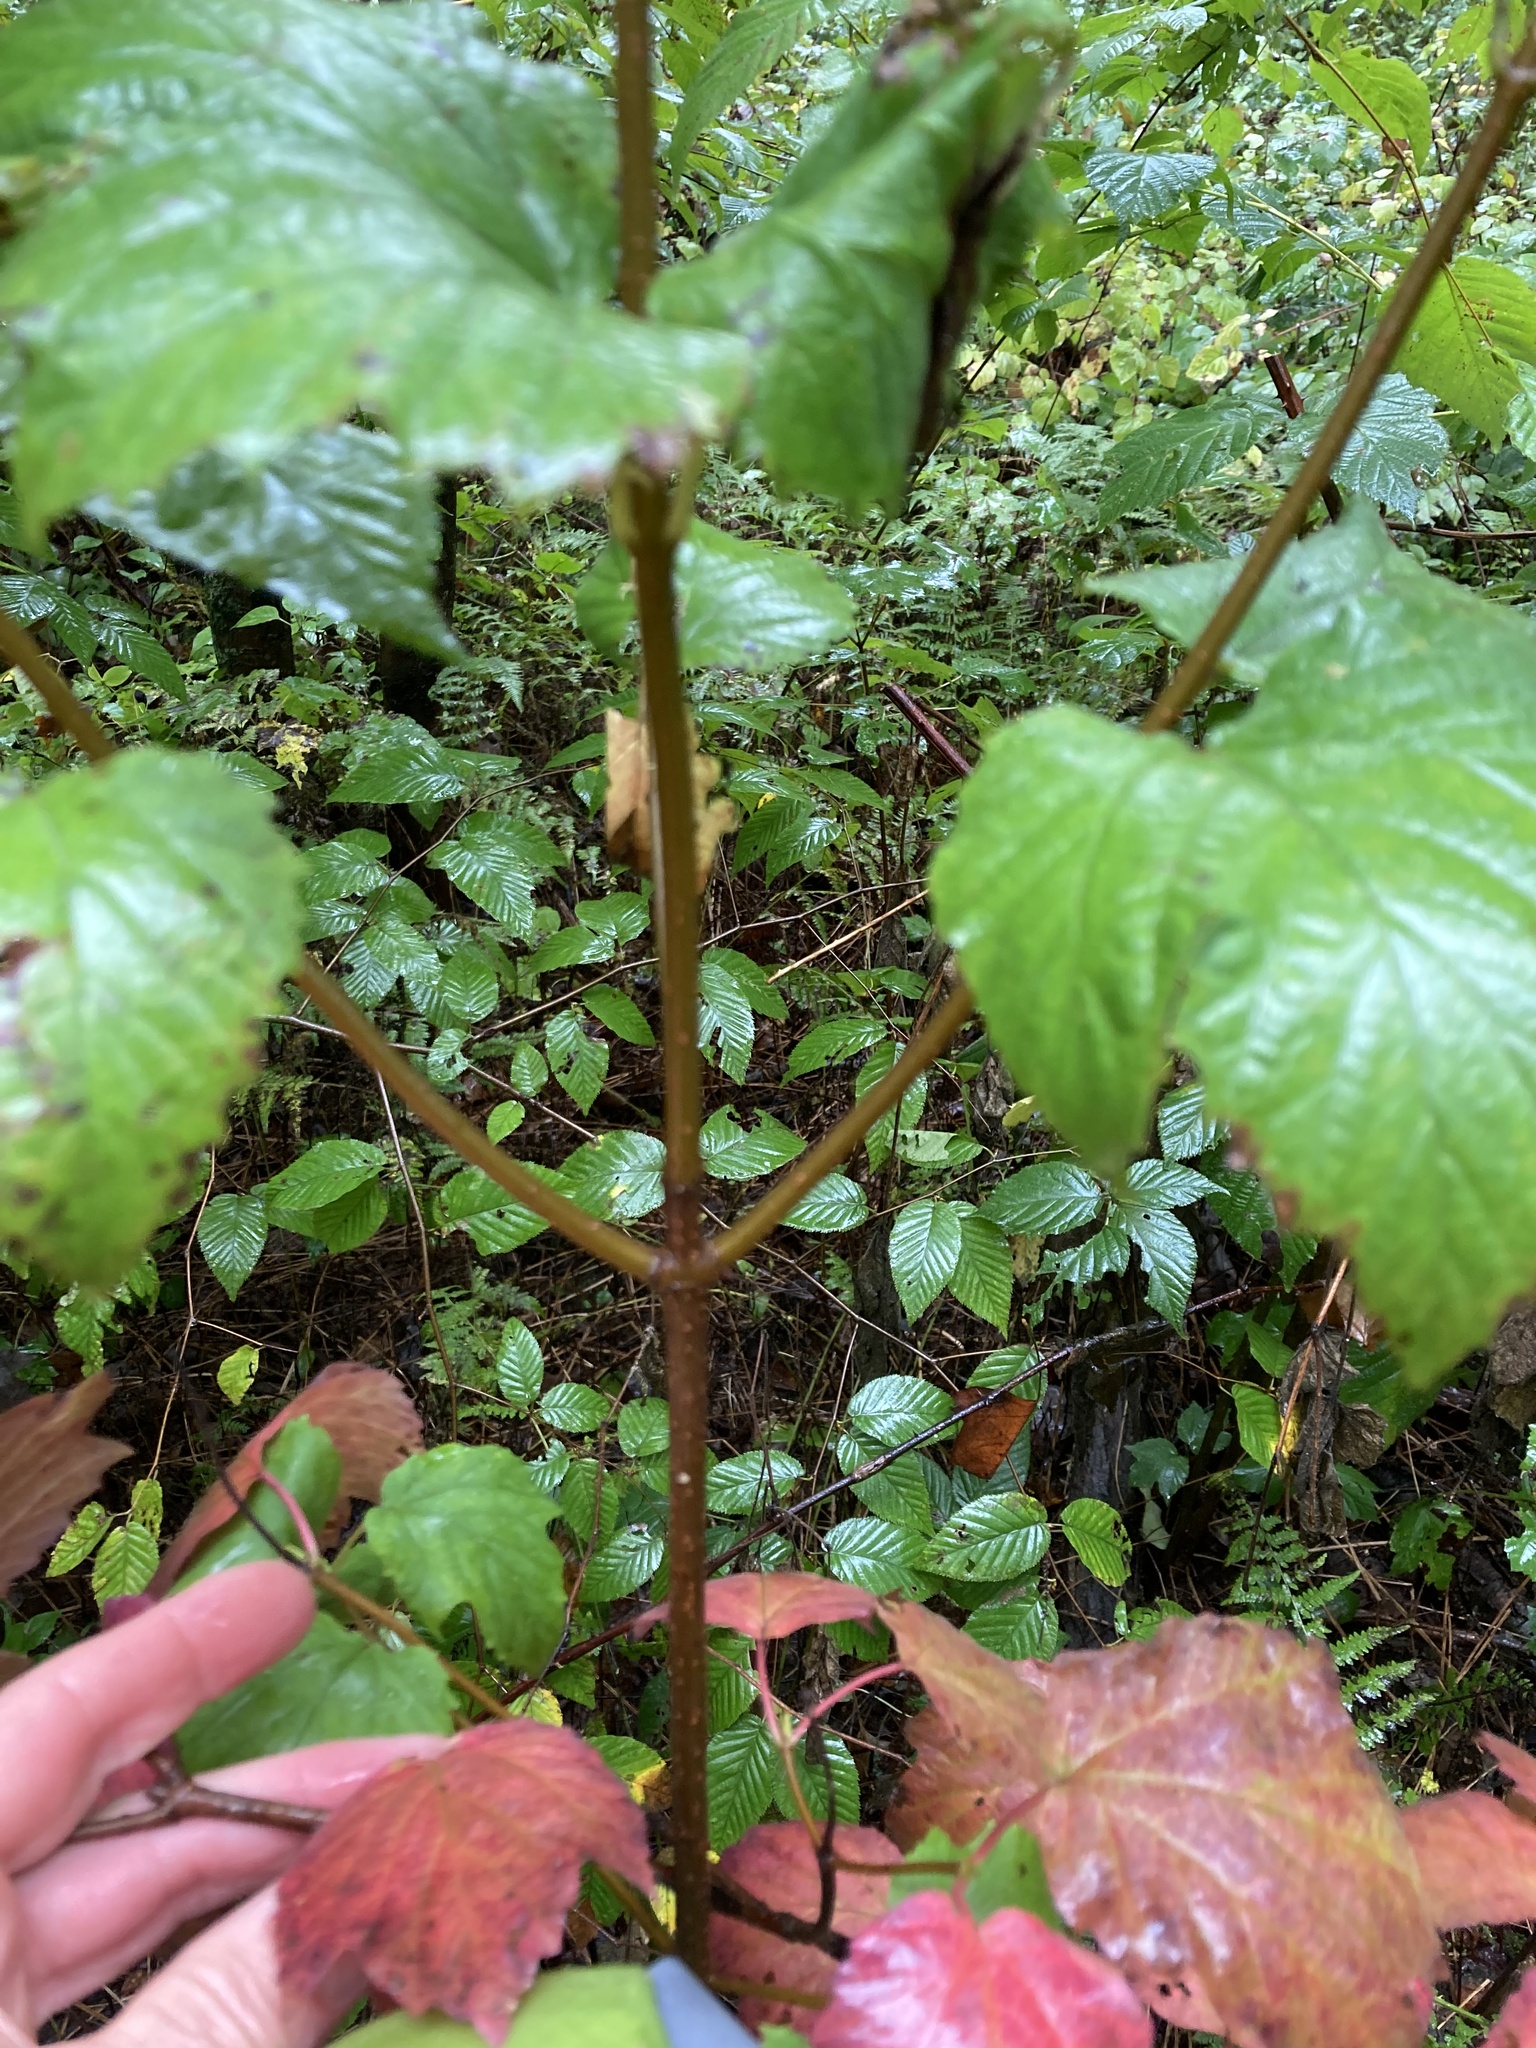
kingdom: Plantae
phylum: Tracheophyta
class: Magnoliopsida
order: Dipsacales
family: Viburnaceae
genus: Viburnum
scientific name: Viburnum acerifolium
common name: Dockmackie
